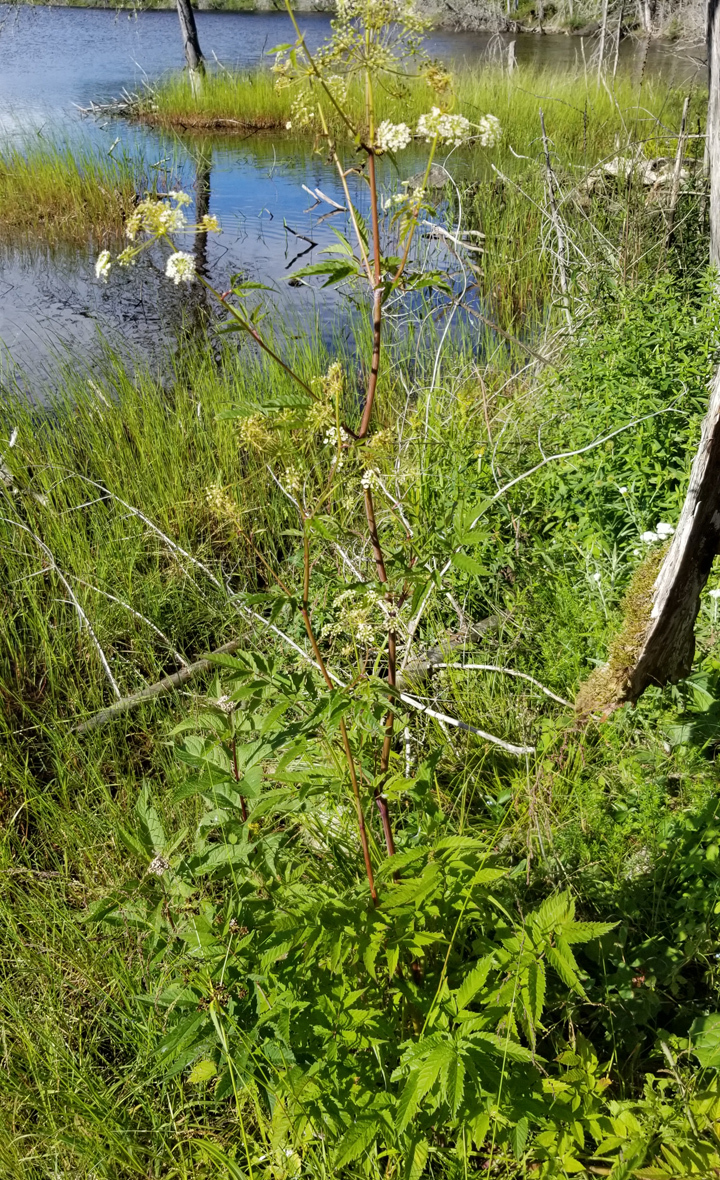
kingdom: Plantae
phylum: Tracheophyta
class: Magnoliopsida
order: Apiales
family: Apiaceae
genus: Cicuta
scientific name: Cicuta maculata
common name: Spotted cowbane
